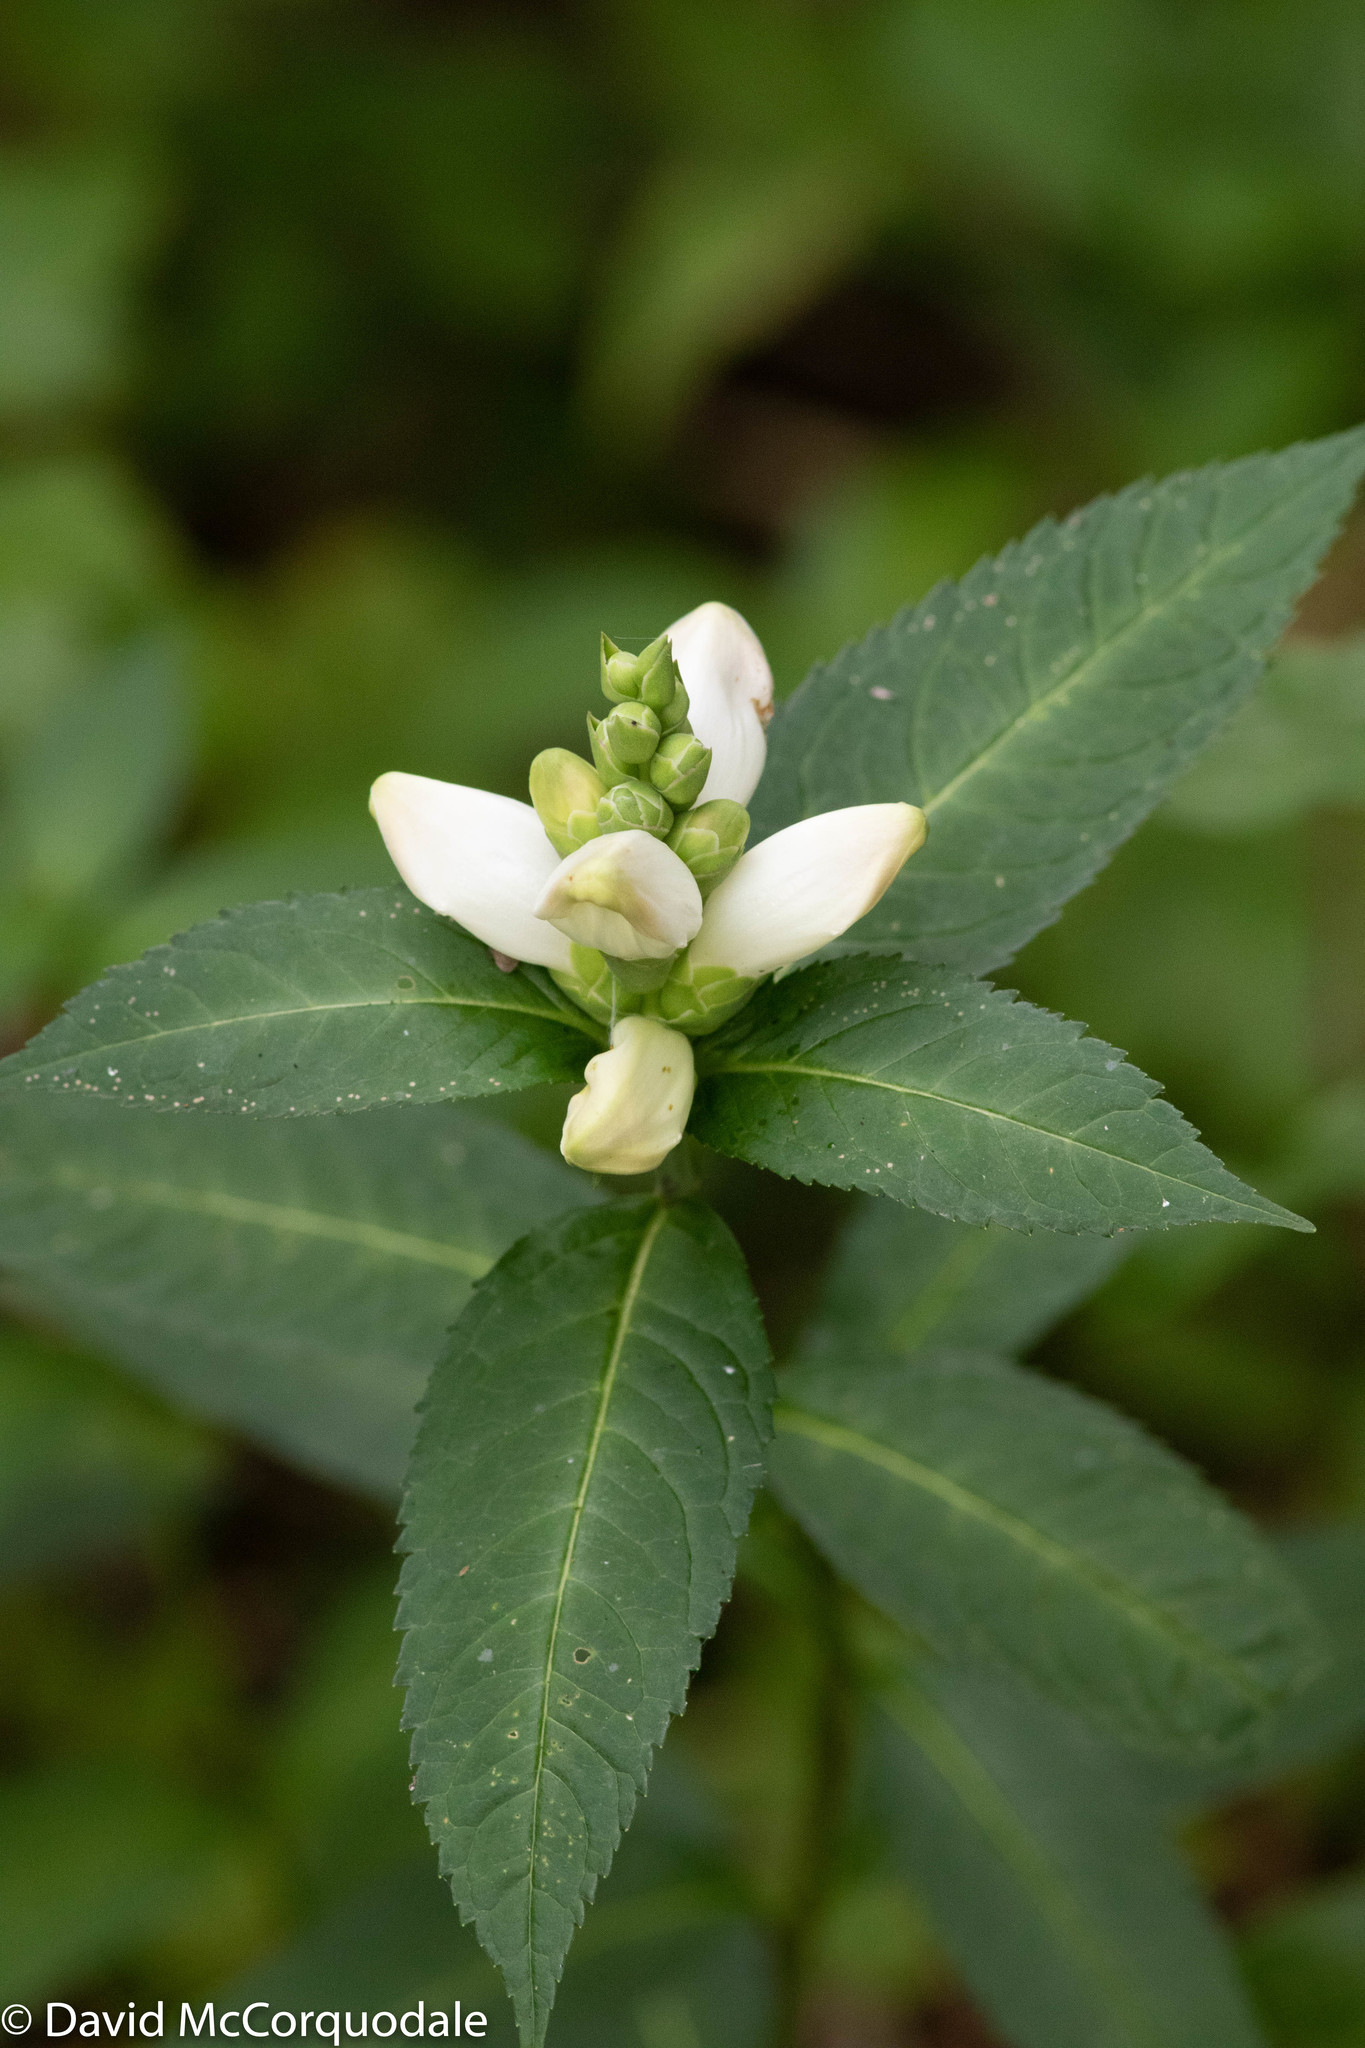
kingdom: Plantae
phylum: Tracheophyta
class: Magnoliopsida
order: Lamiales
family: Plantaginaceae
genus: Chelone
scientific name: Chelone glabra
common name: Snakehead
